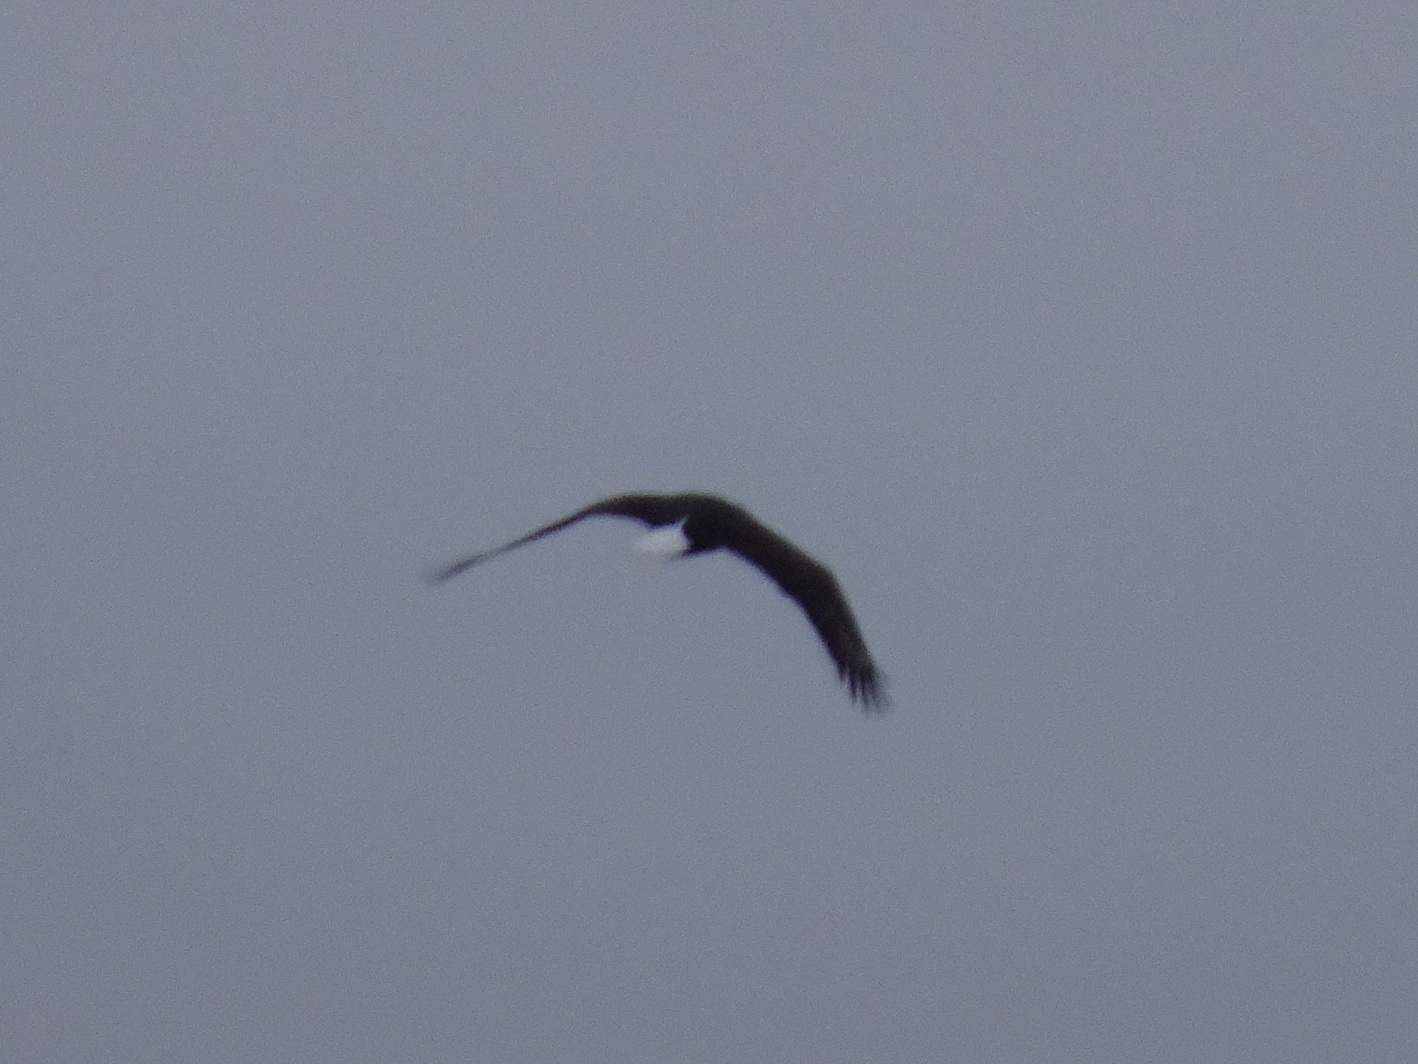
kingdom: Animalia
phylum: Chordata
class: Aves
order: Accipitriformes
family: Accipitridae
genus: Haliaeetus
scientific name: Haliaeetus leucocephalus
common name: Bald eagle
